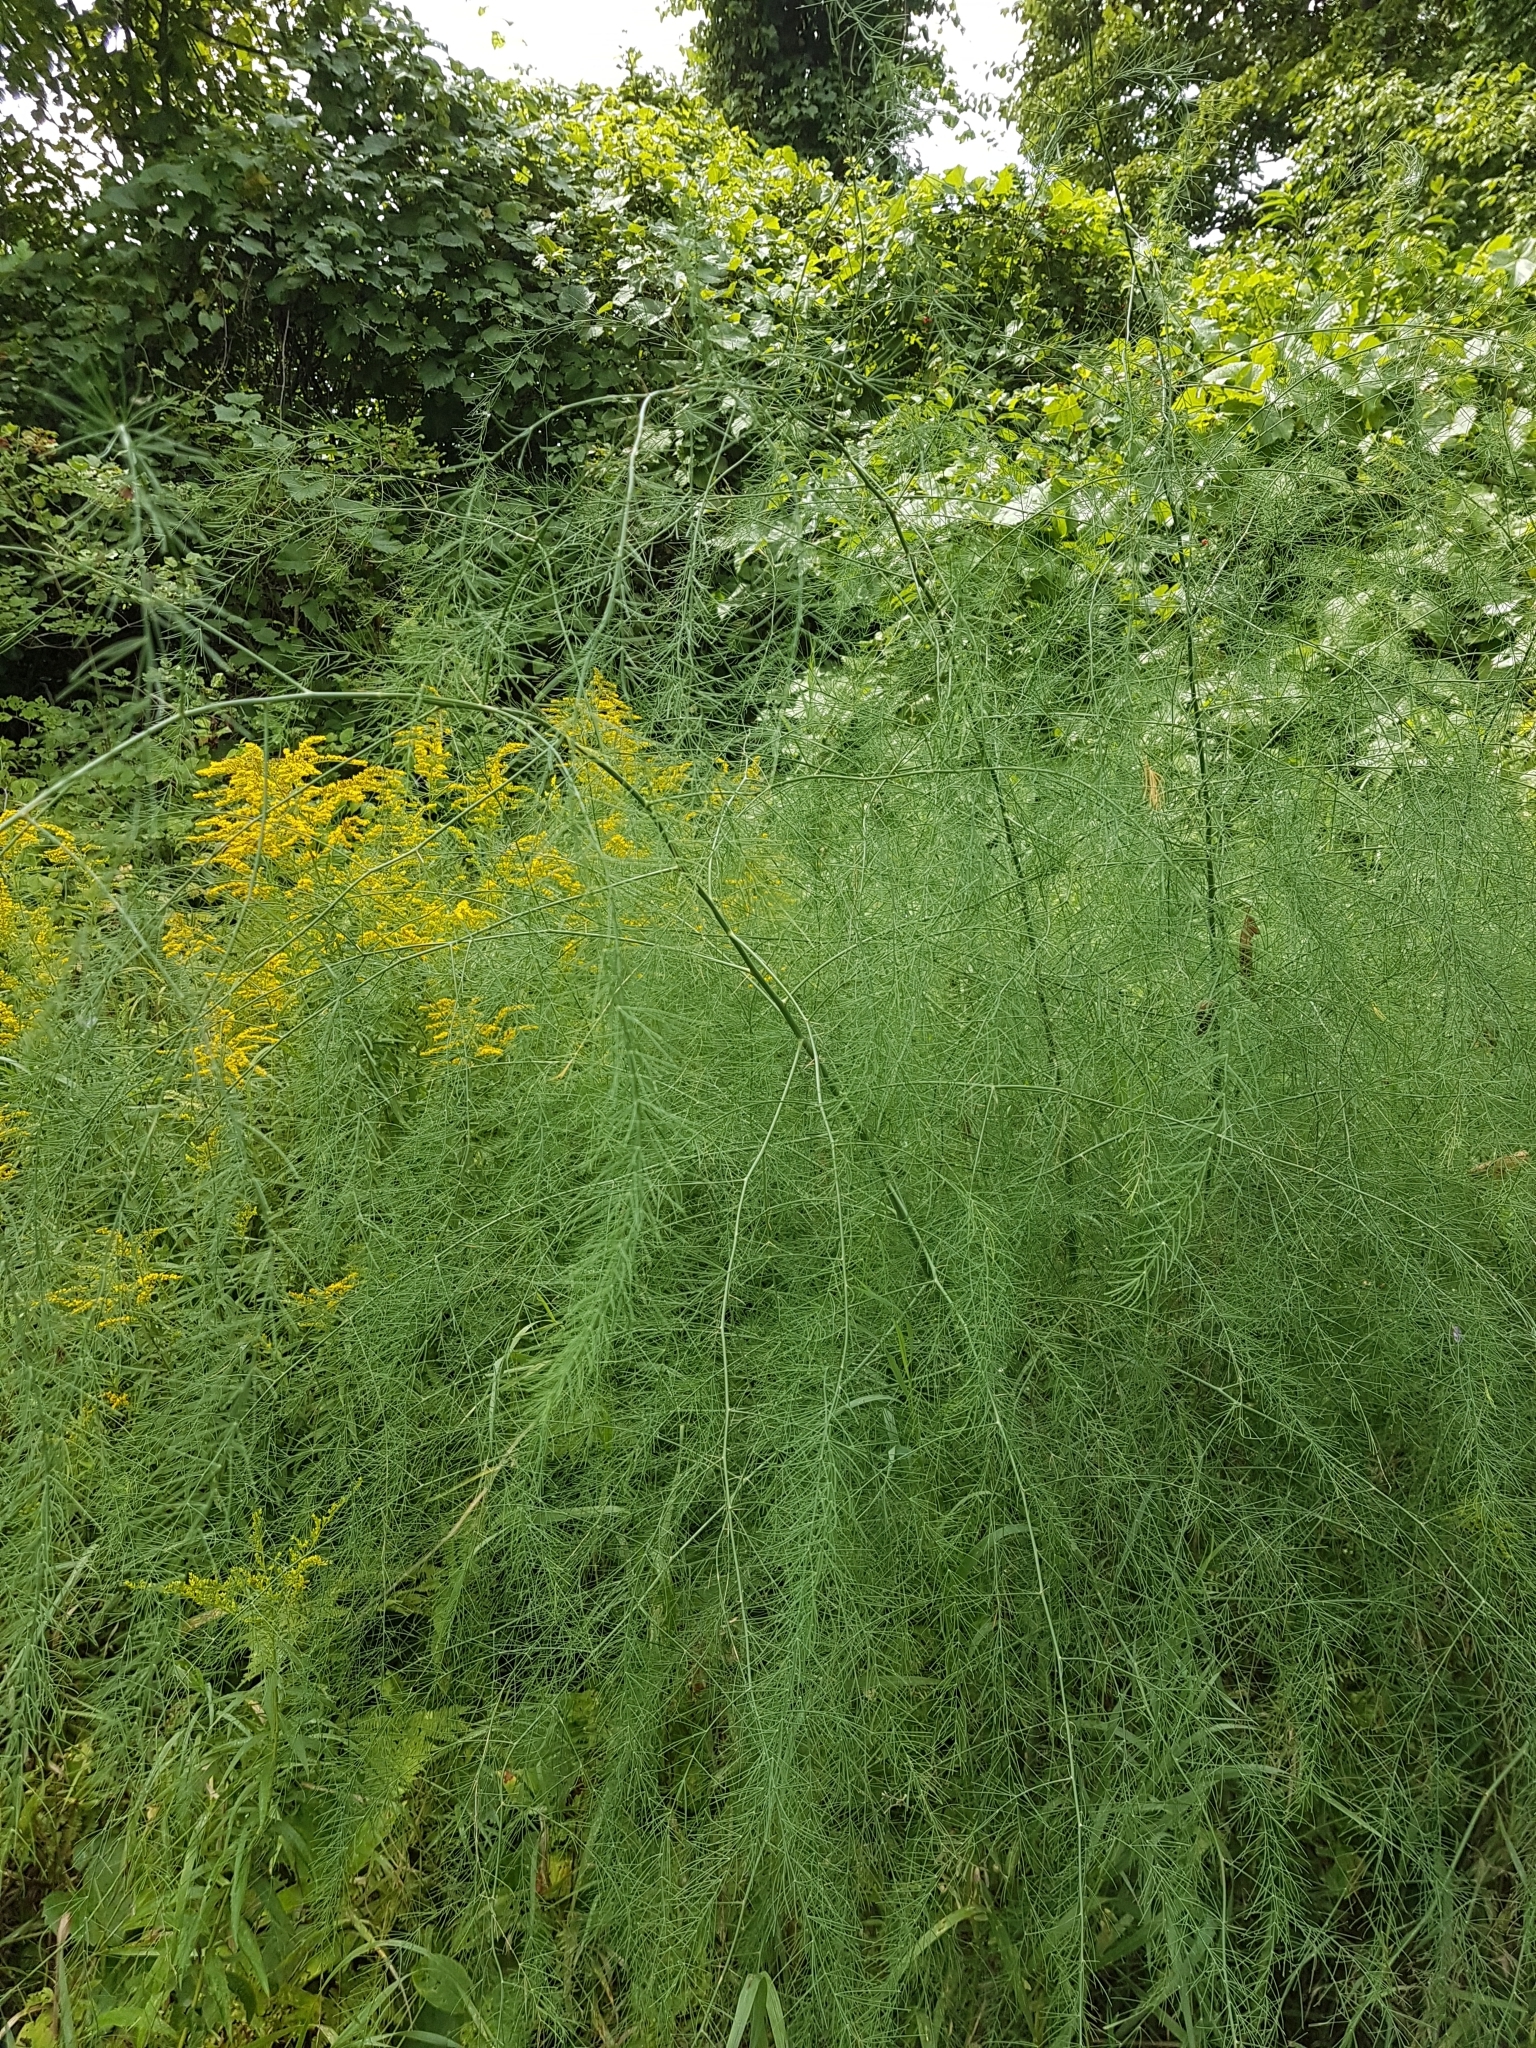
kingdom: Plantae
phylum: Tracheophyta
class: Liliopsida
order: Asparagales
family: Asparagaceae
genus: Asparagus
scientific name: Asparagus officinalis
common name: Garden asparagus
